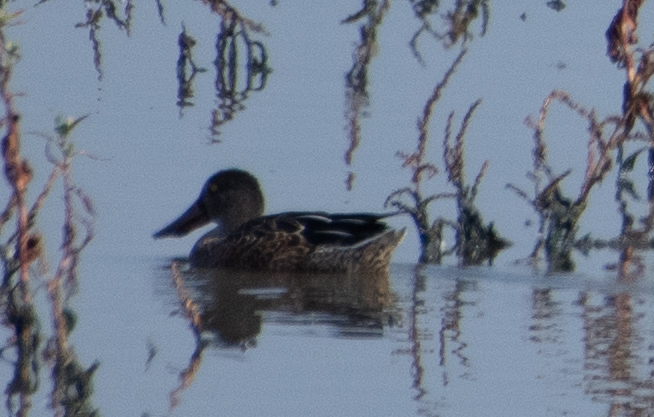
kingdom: Animalia
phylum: Chordata
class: Aves
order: Anseriformes
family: Anatidae
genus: Spatula
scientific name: Spatula clypeata
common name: Northern shoveler
